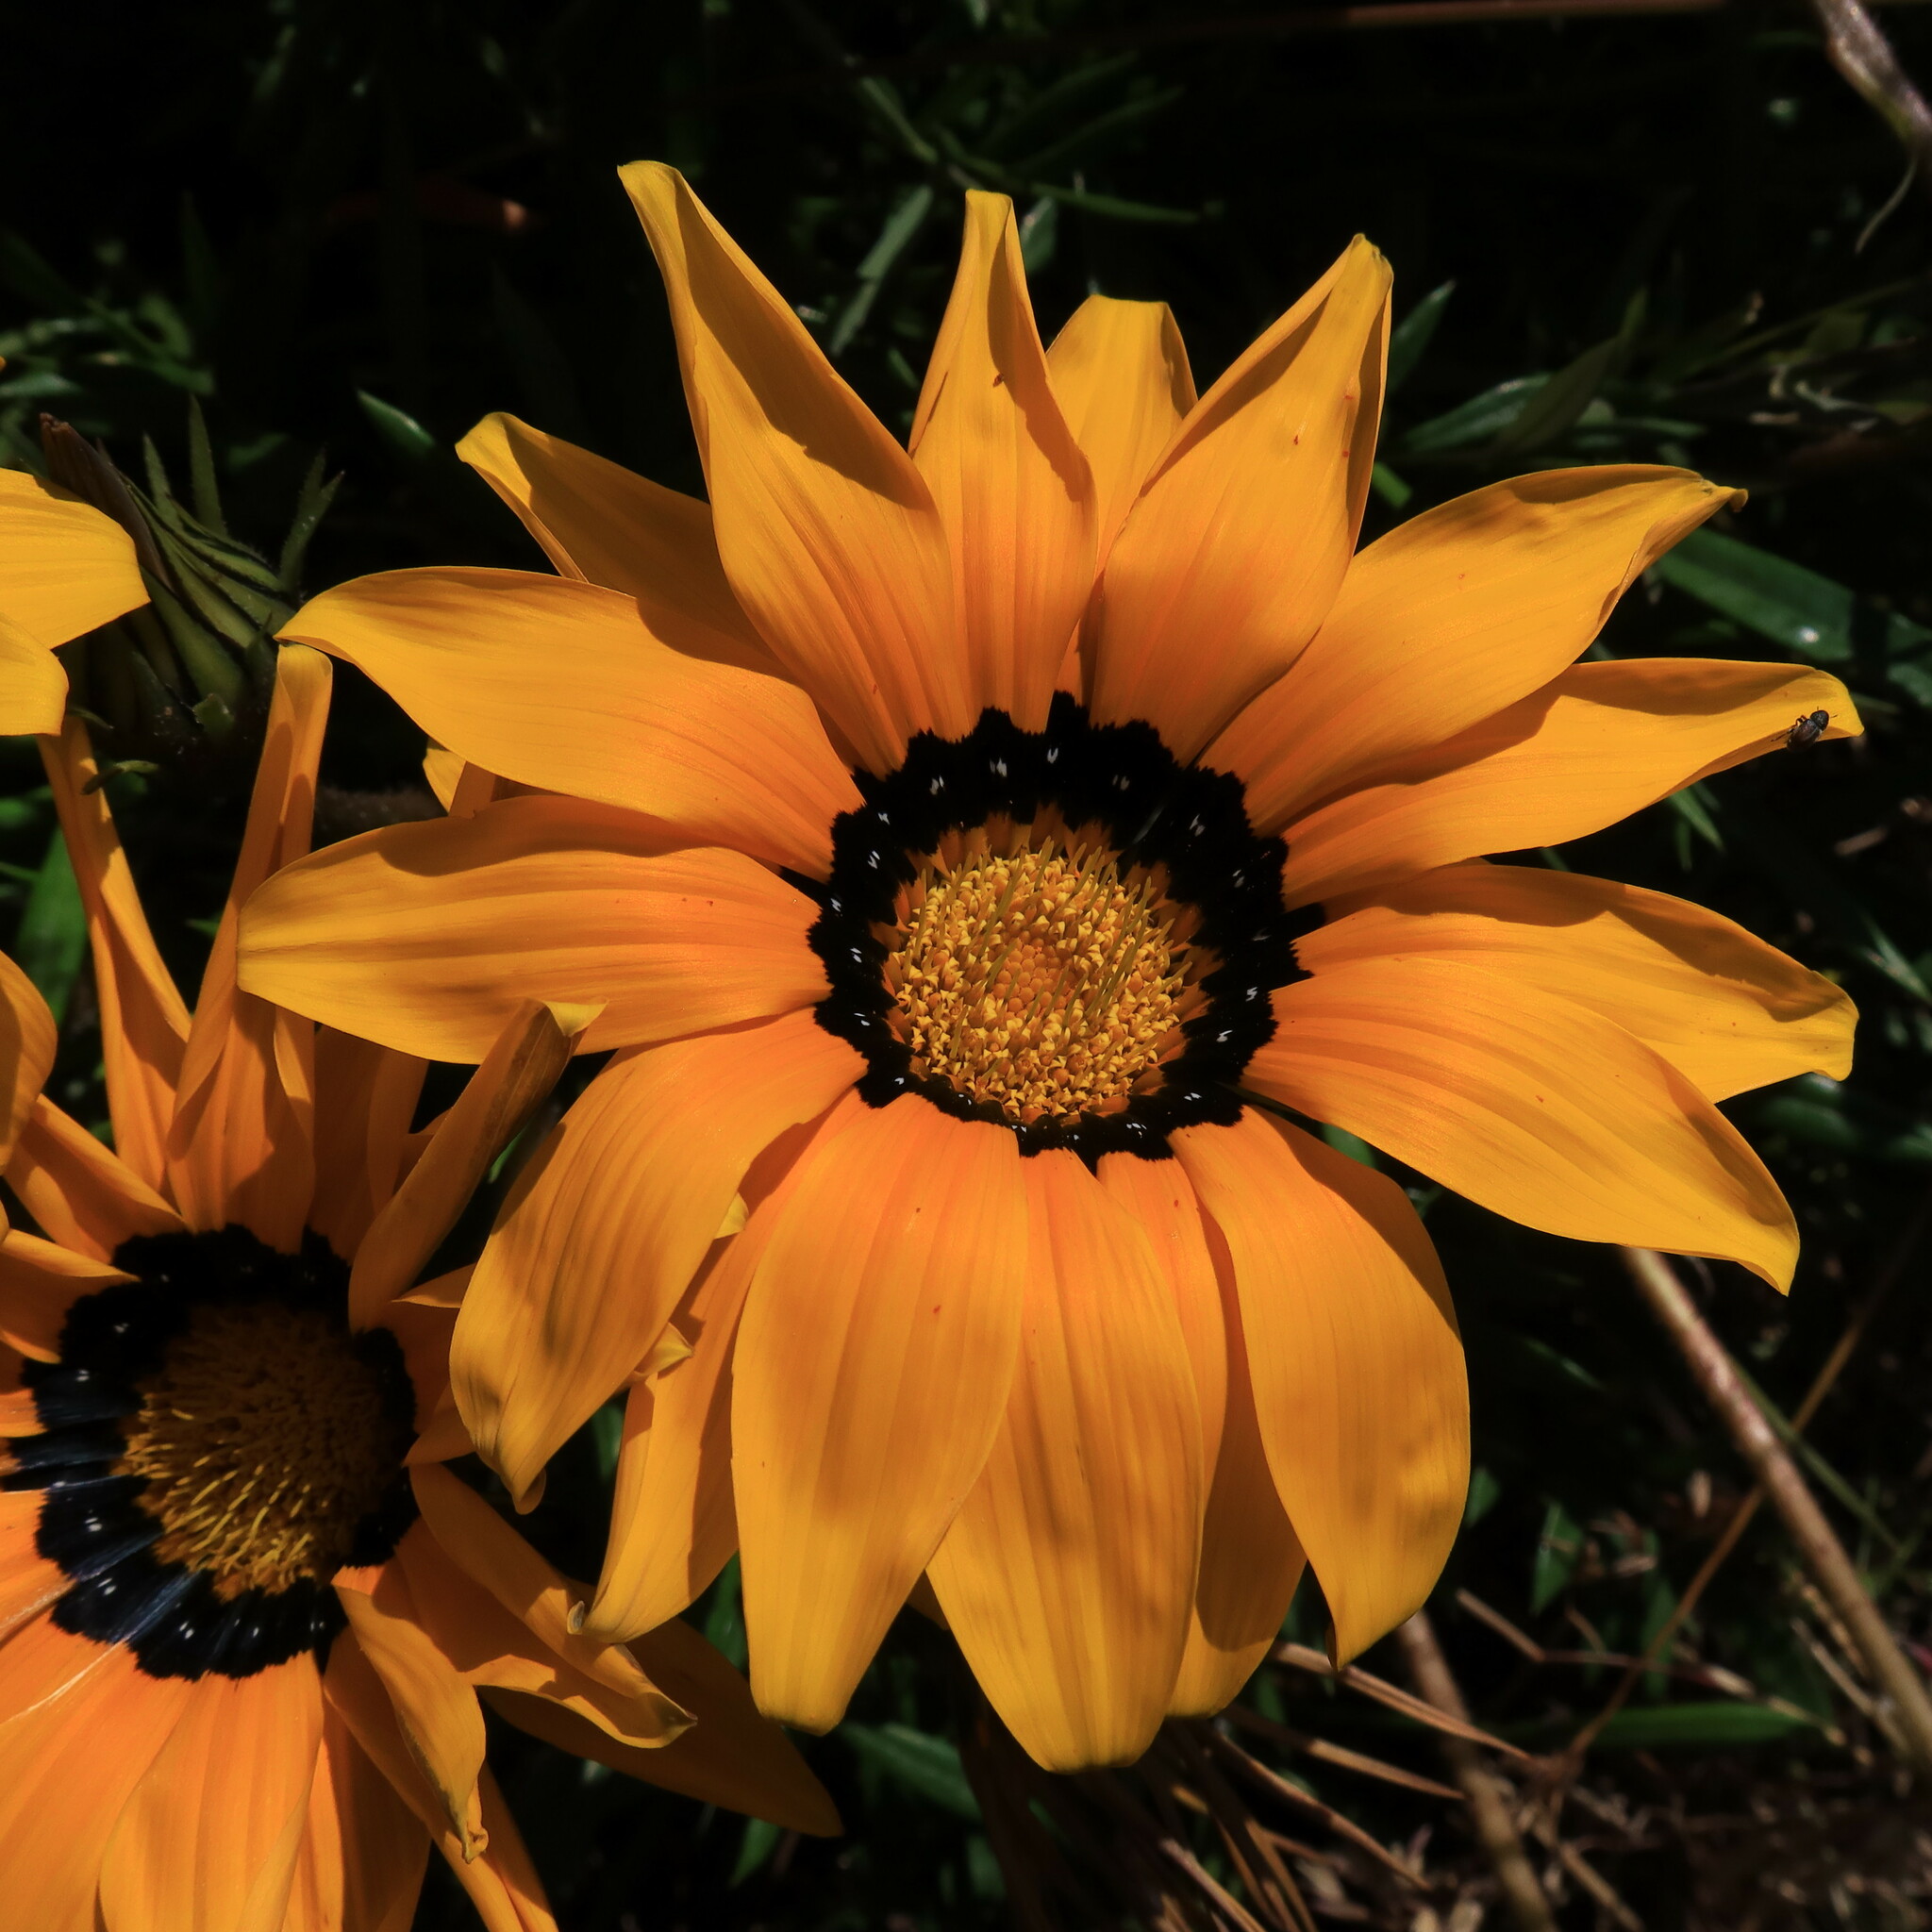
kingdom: Plantae
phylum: Tracheophyta
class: Magnoliopsida
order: Asterales
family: Asteraceae
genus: Gazania
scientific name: Gazania pectinata
